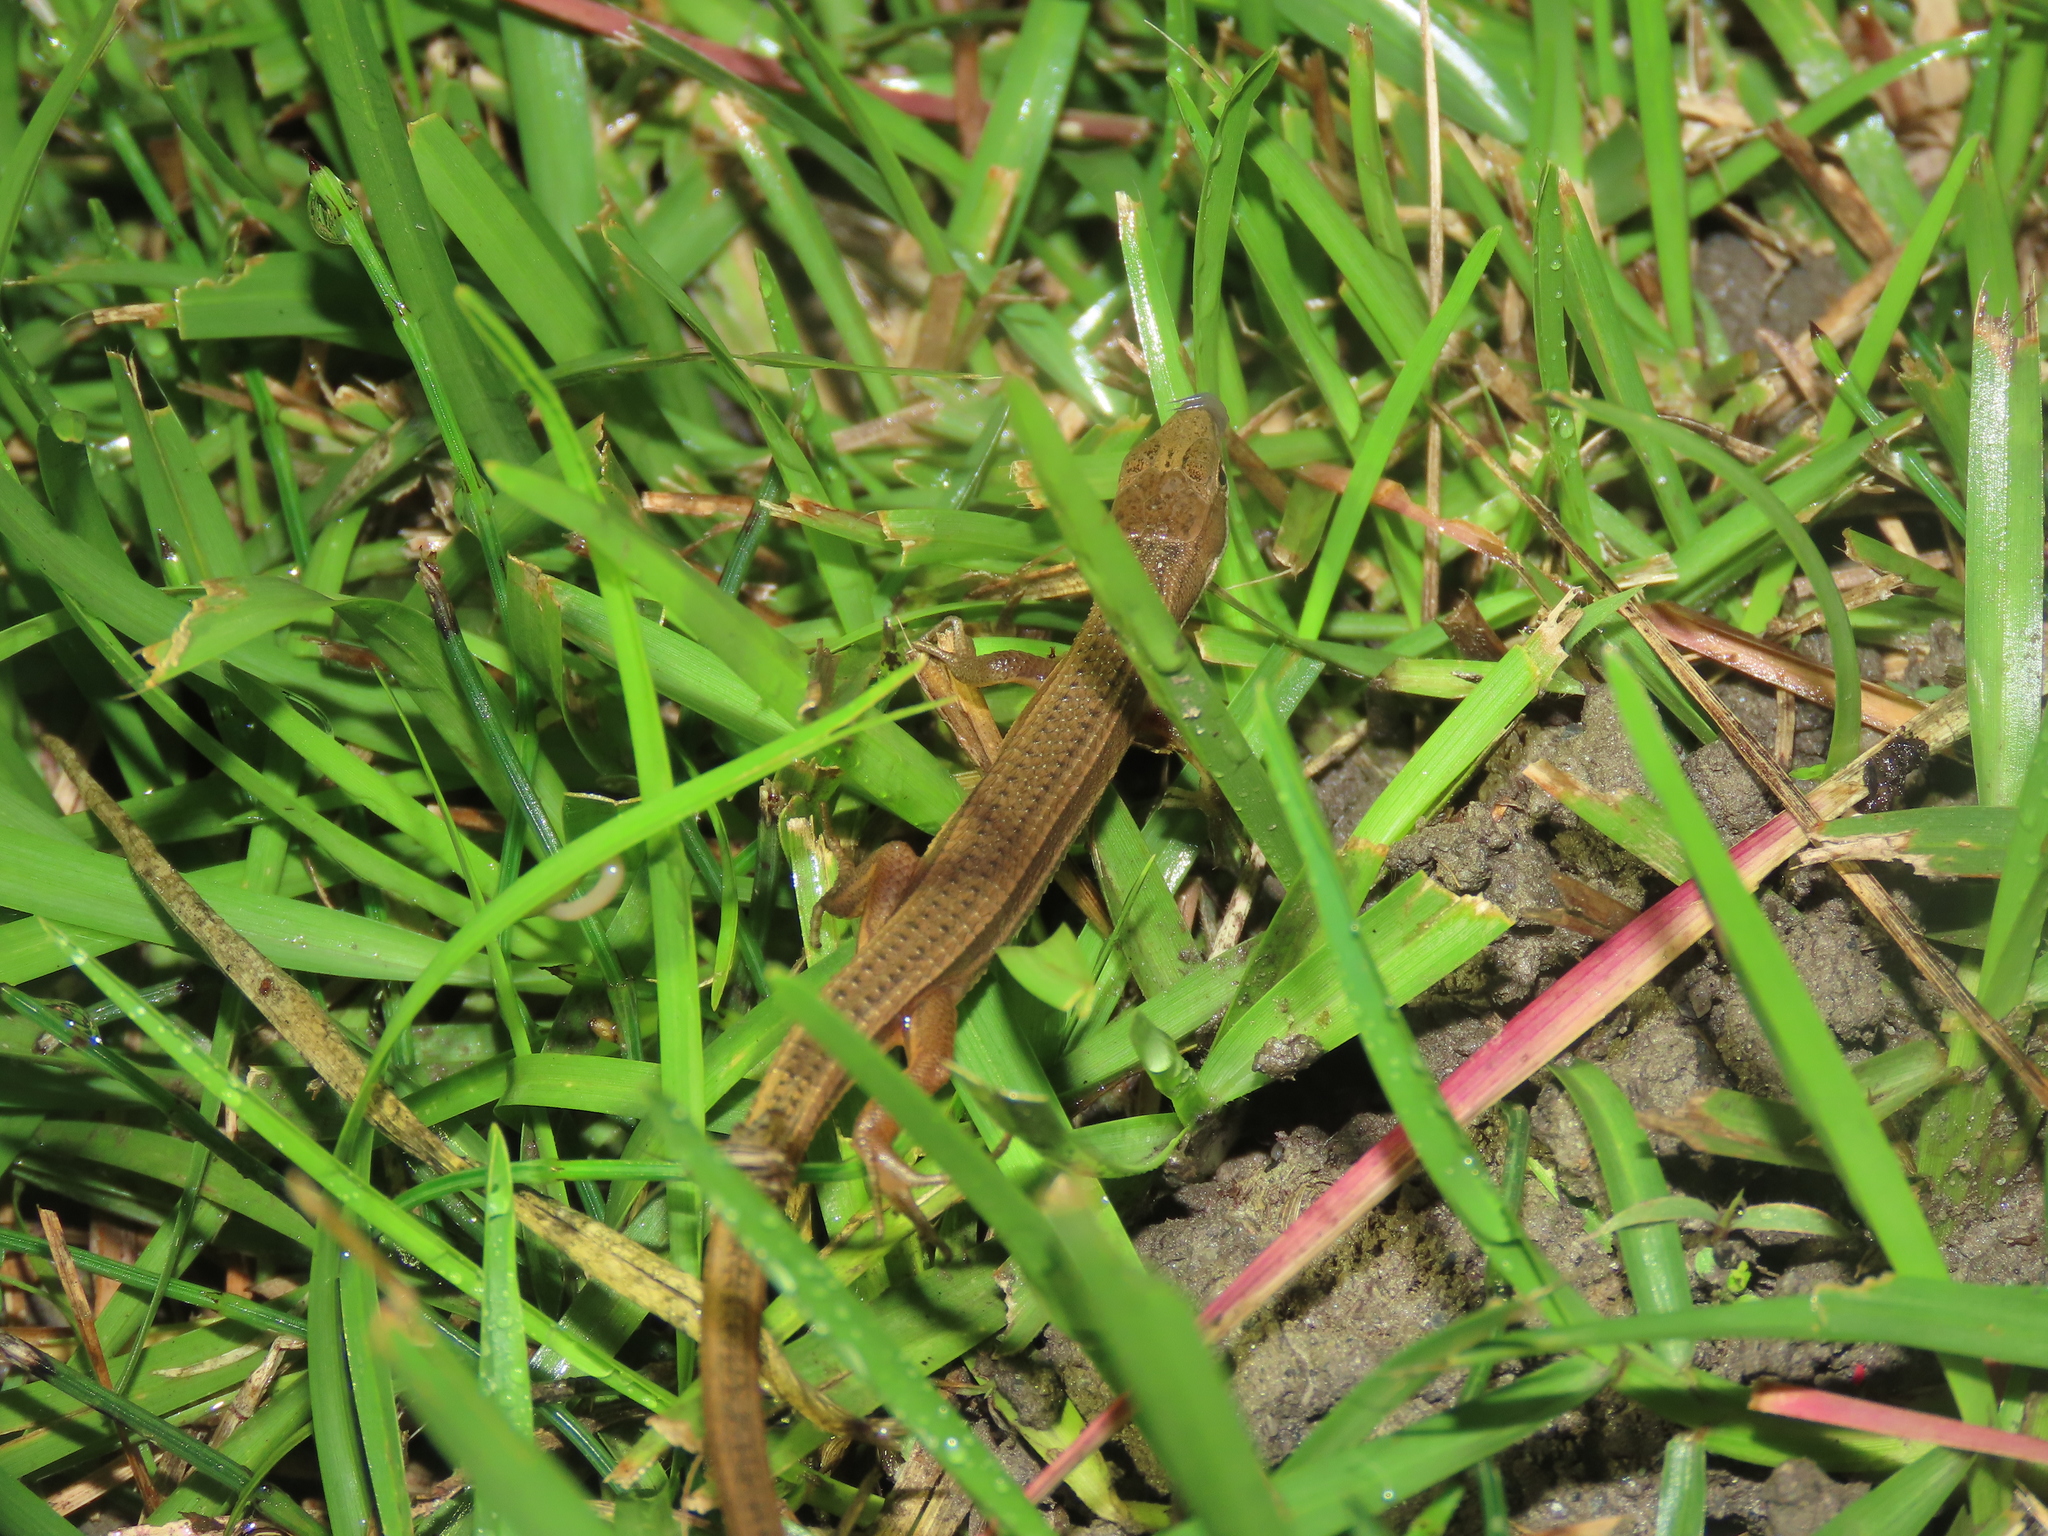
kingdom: Animalia
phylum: Chordata
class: Squamata
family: Lacertidae
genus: Takydromus
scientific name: Takydromus luyeanus
